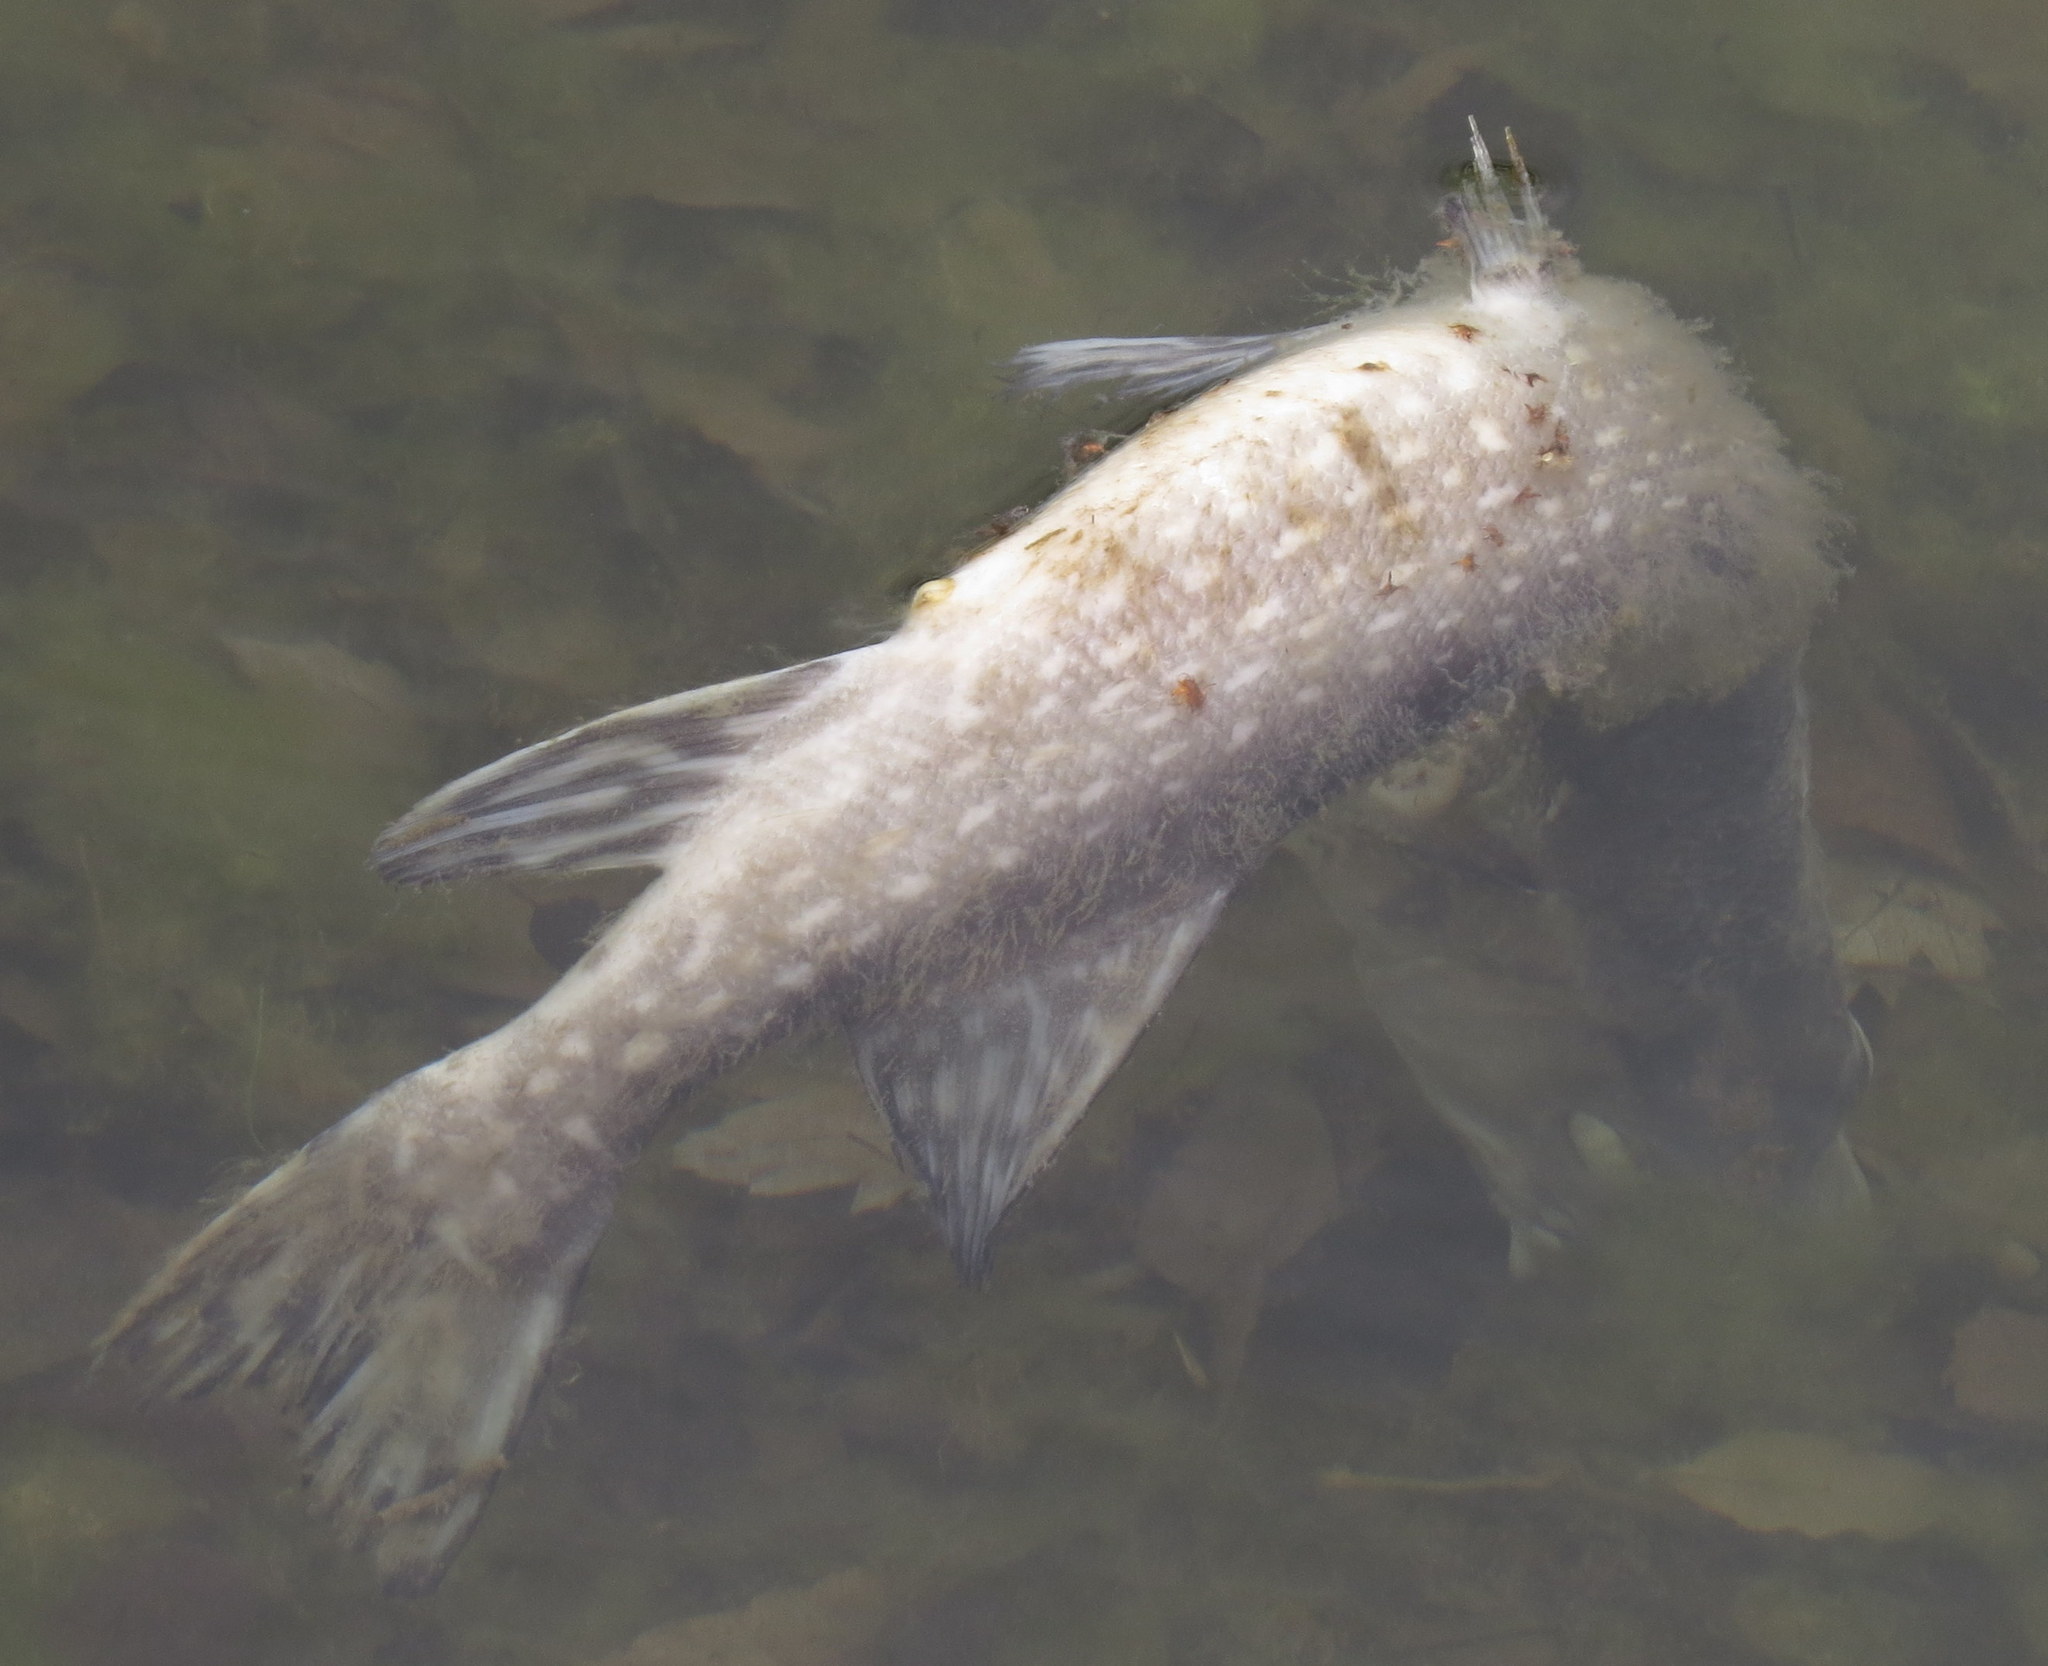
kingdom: Animalia
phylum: Chordata
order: Esociformes
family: Esocidae
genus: Esox
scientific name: Esox lucius
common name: Northern pike
